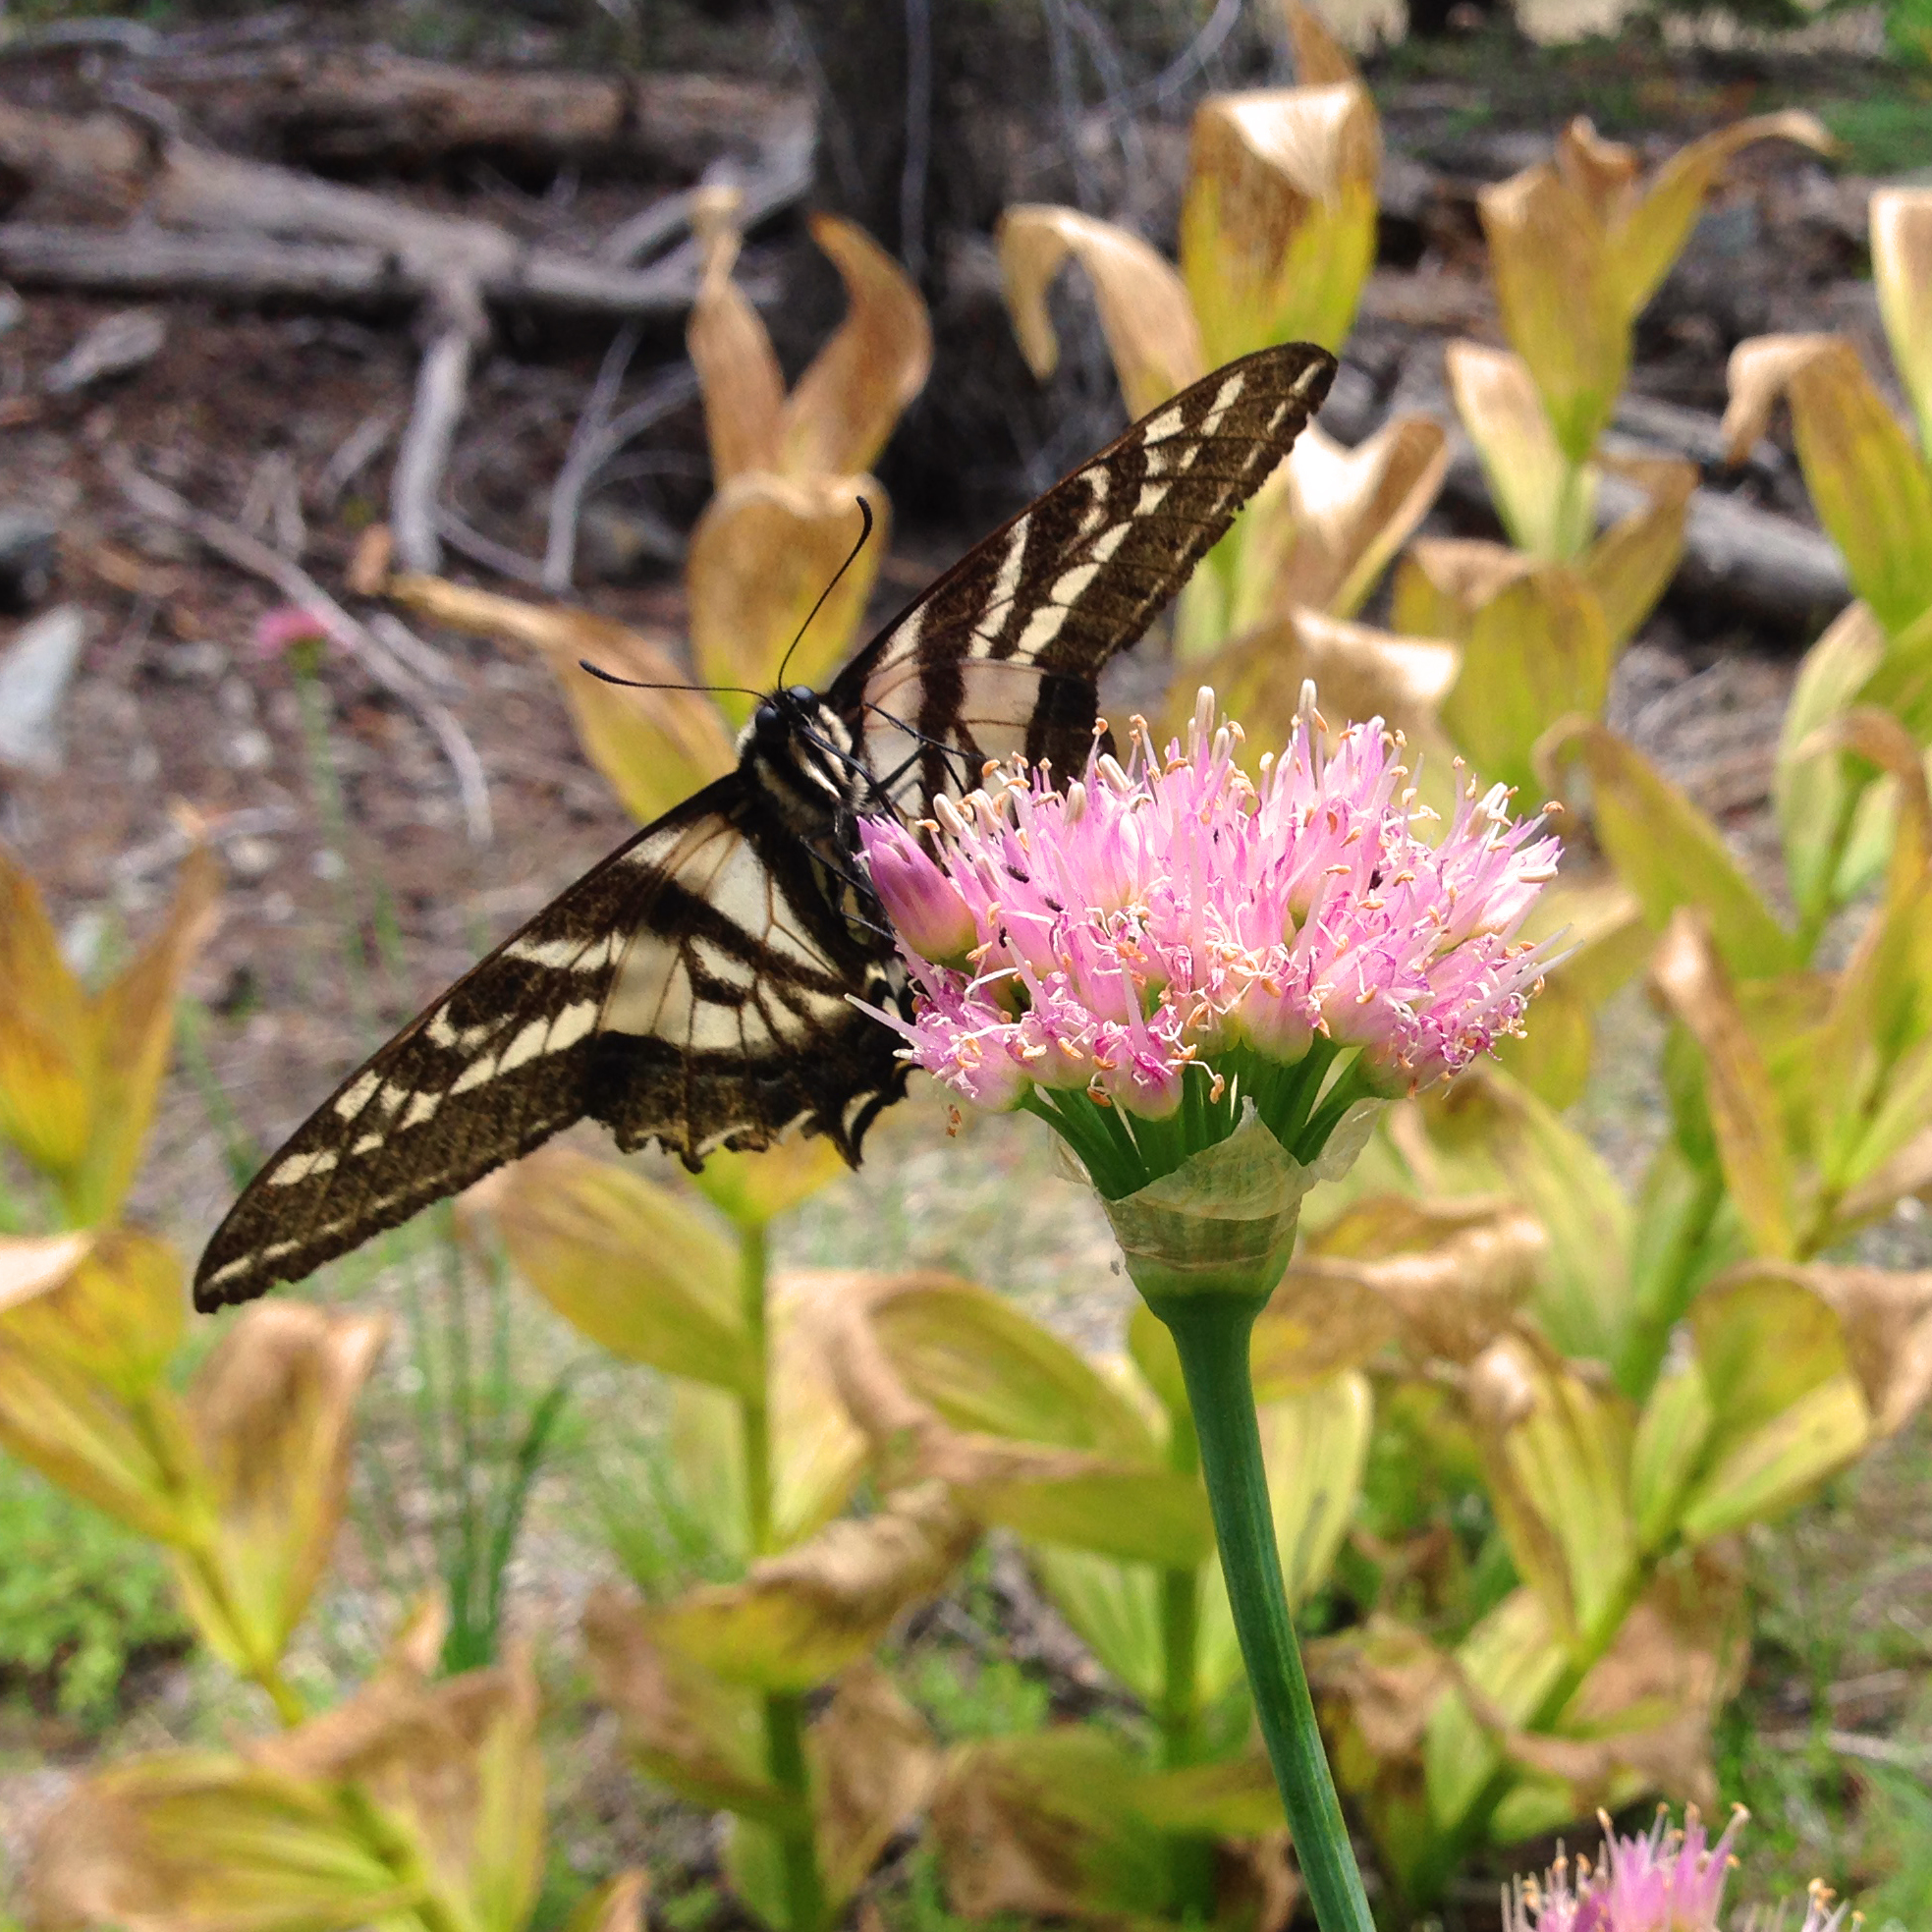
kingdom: Animalia
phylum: Arthropoda
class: Insecta
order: Lepidoptera
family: Papilionidae
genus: Papilio
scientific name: Papilio eurymedon
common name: Pale tiger swallowtail
